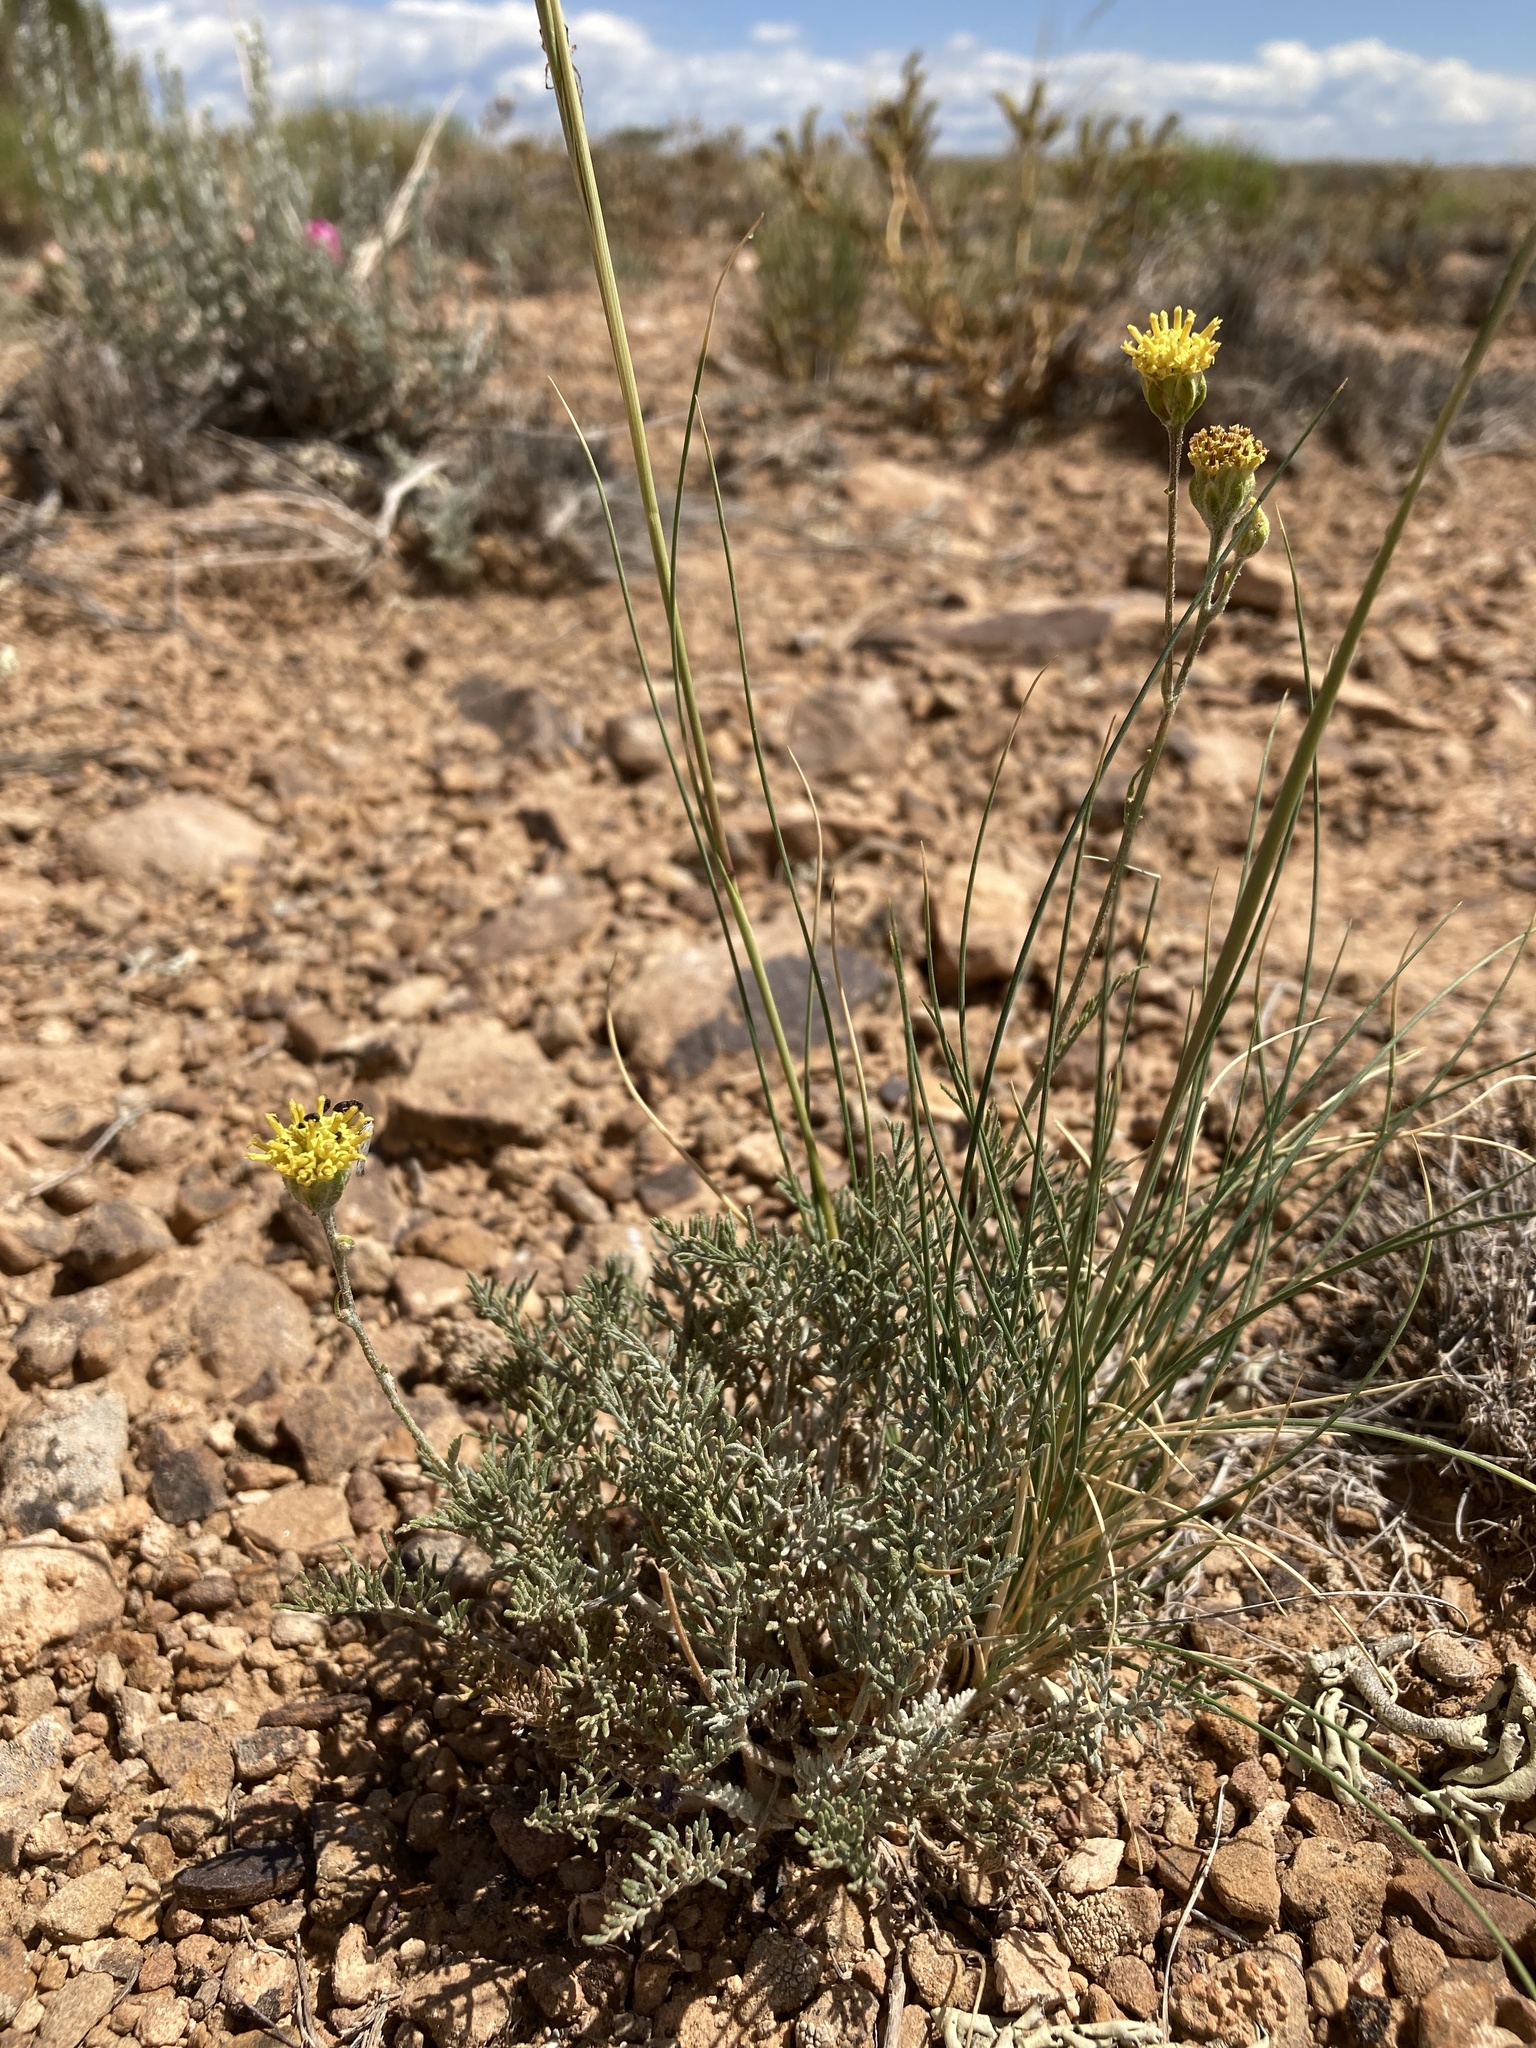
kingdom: Plantae
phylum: Tracheophyta
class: Magnoliopsida
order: Asterales
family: Asteraceae
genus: Hymenopappus
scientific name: Hymenopappus filifolius
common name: Columbia cutleaf
